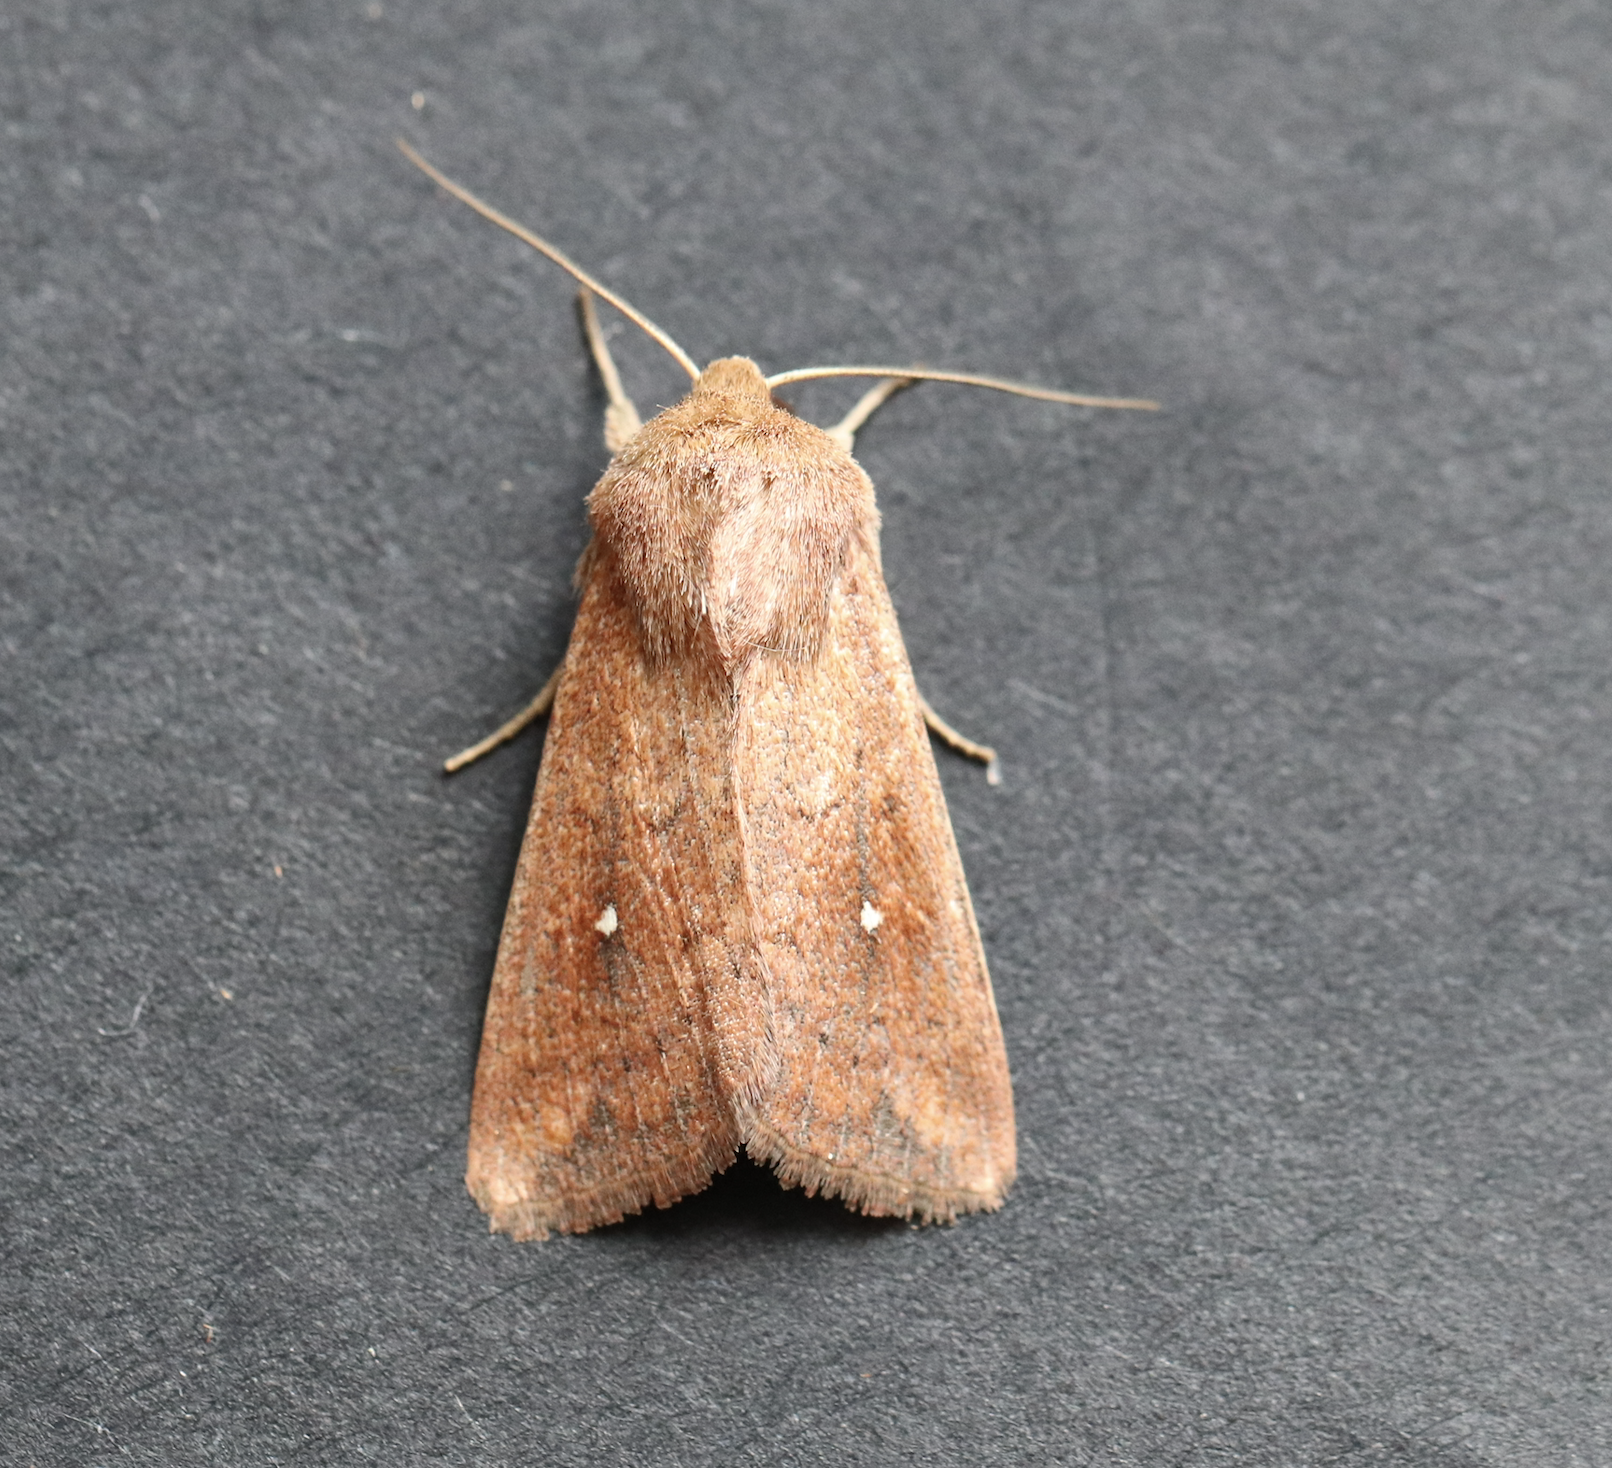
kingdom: Animalia
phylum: Arthropoda
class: Insecta
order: Lepidoptera
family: Noctuidae
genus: Mythimna
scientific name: Mythimna albipuncta
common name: White-point
